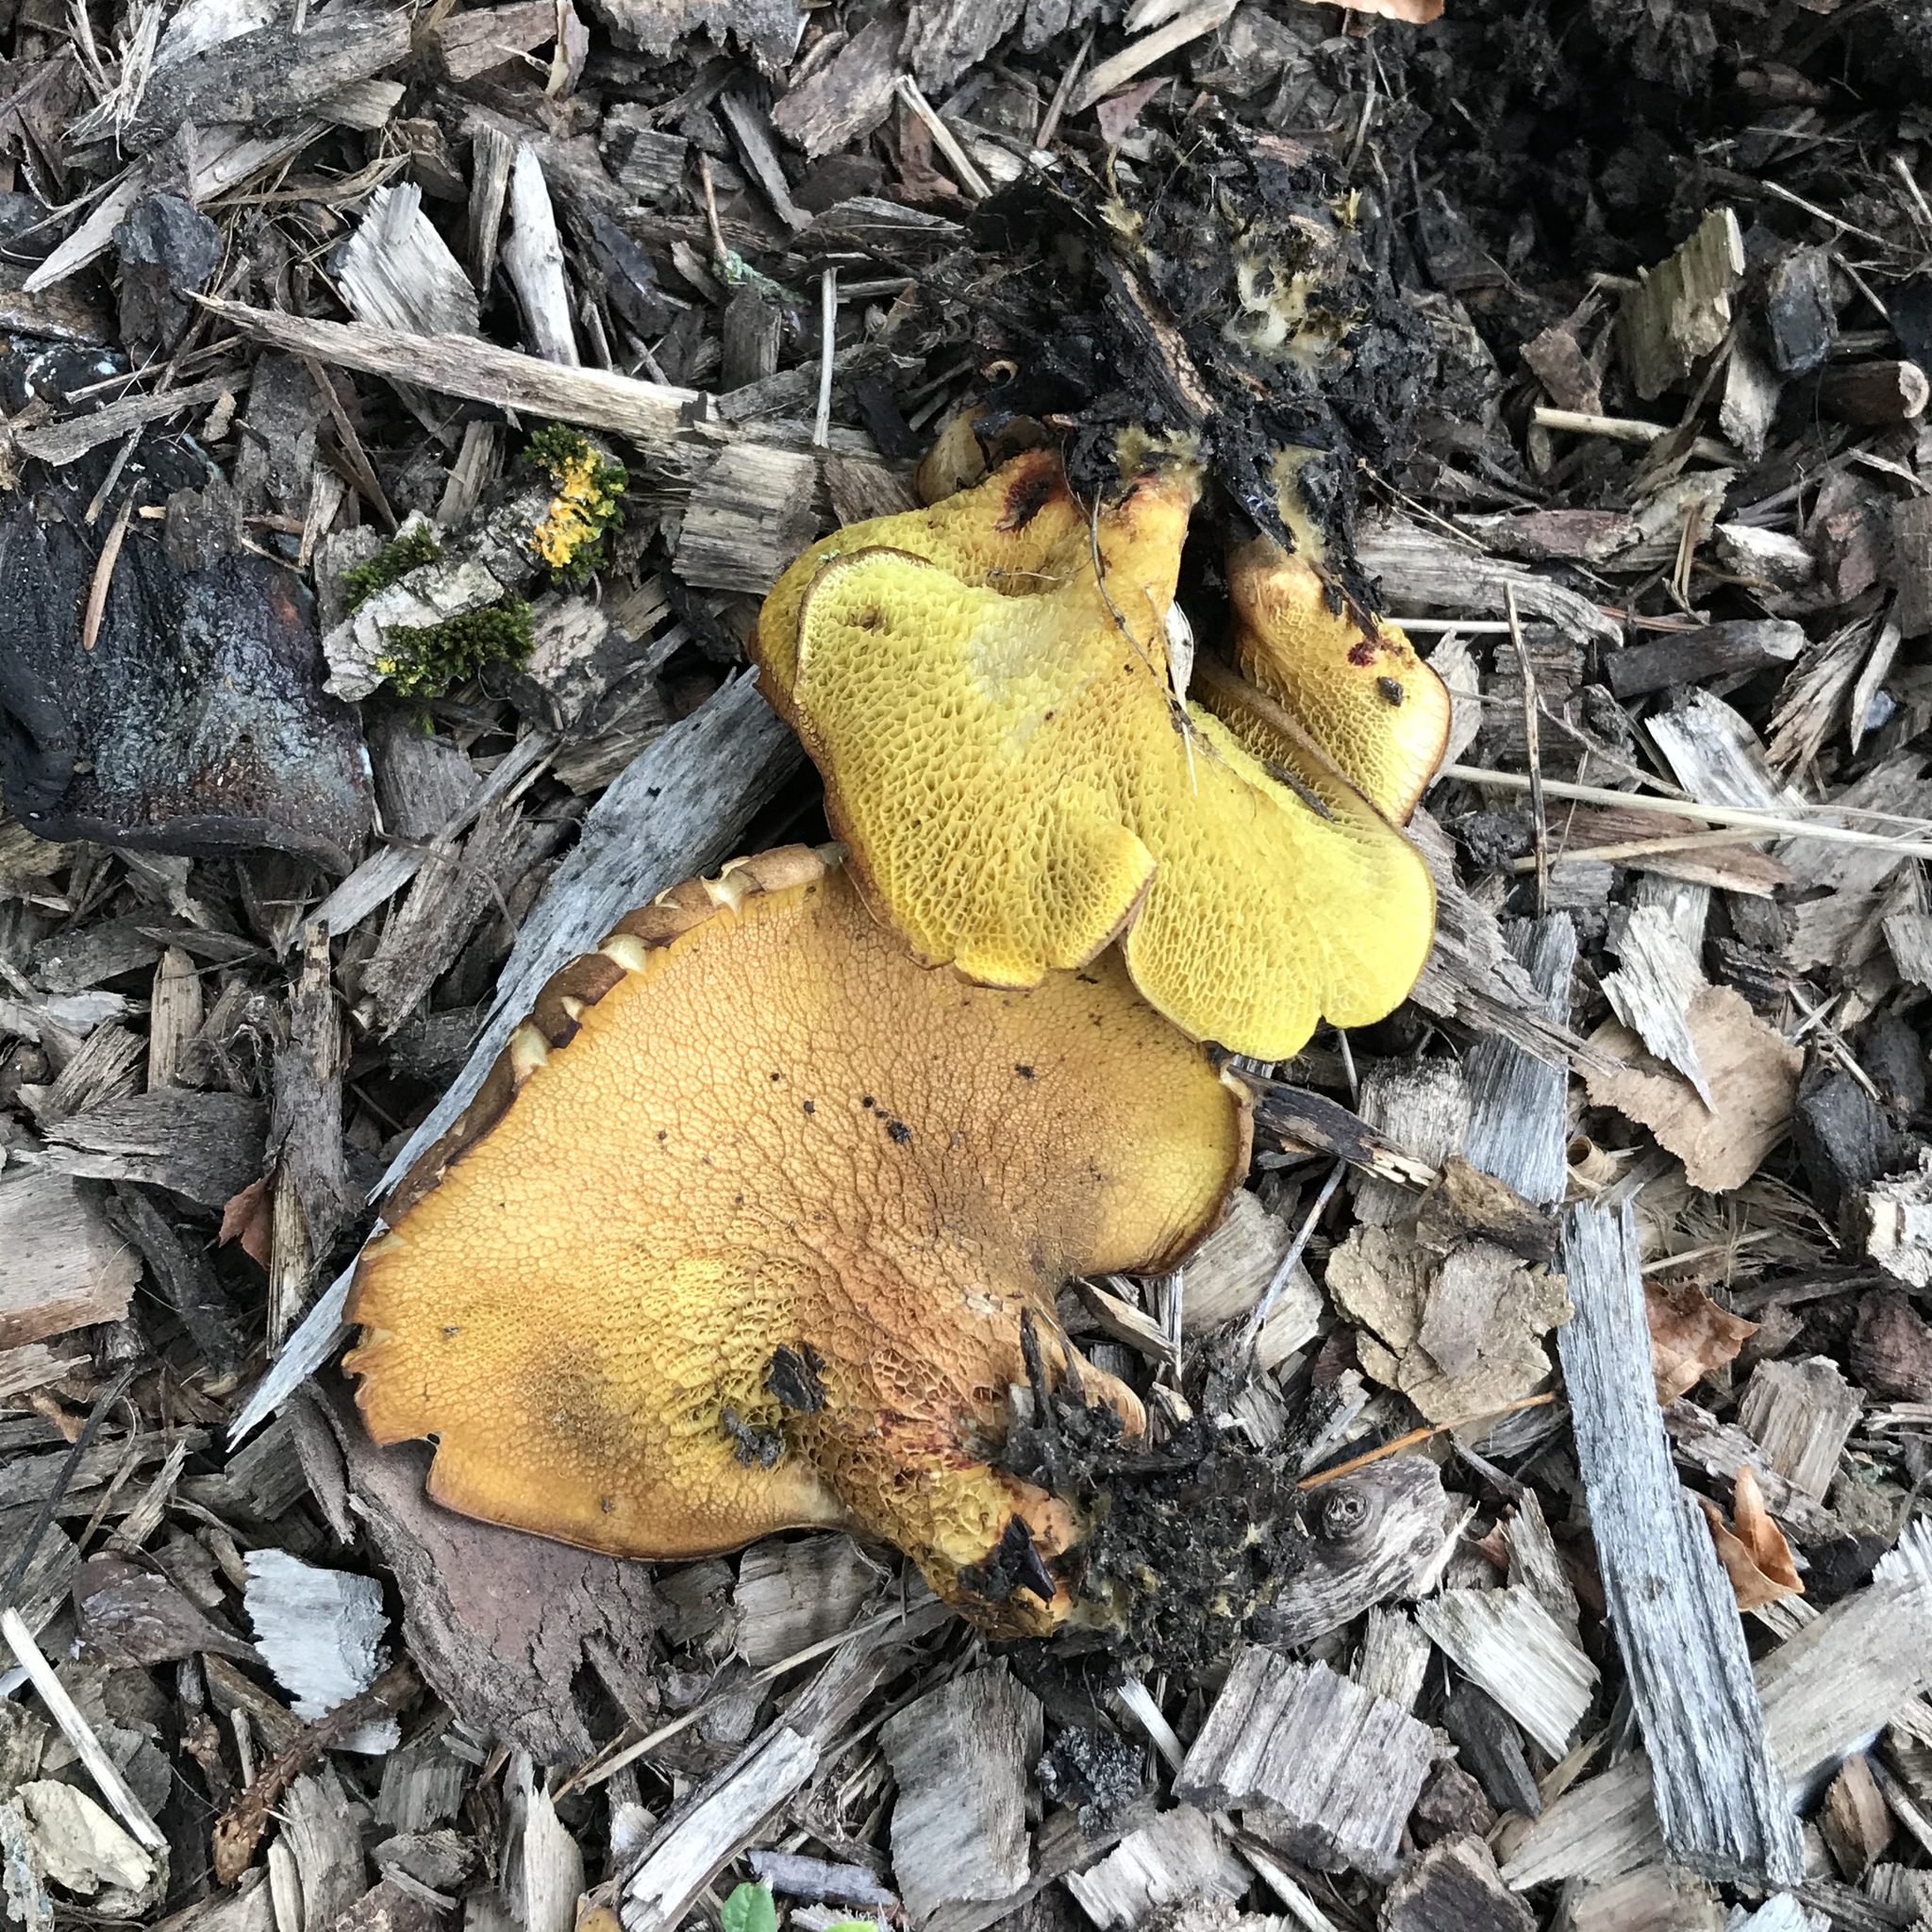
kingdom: Fungi
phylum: Basidiomycota
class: Agaricomycetes
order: Boletales
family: Boletinellaceae
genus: Boletinellus
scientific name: Boletinellus merulioides
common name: Ash tree bolete
